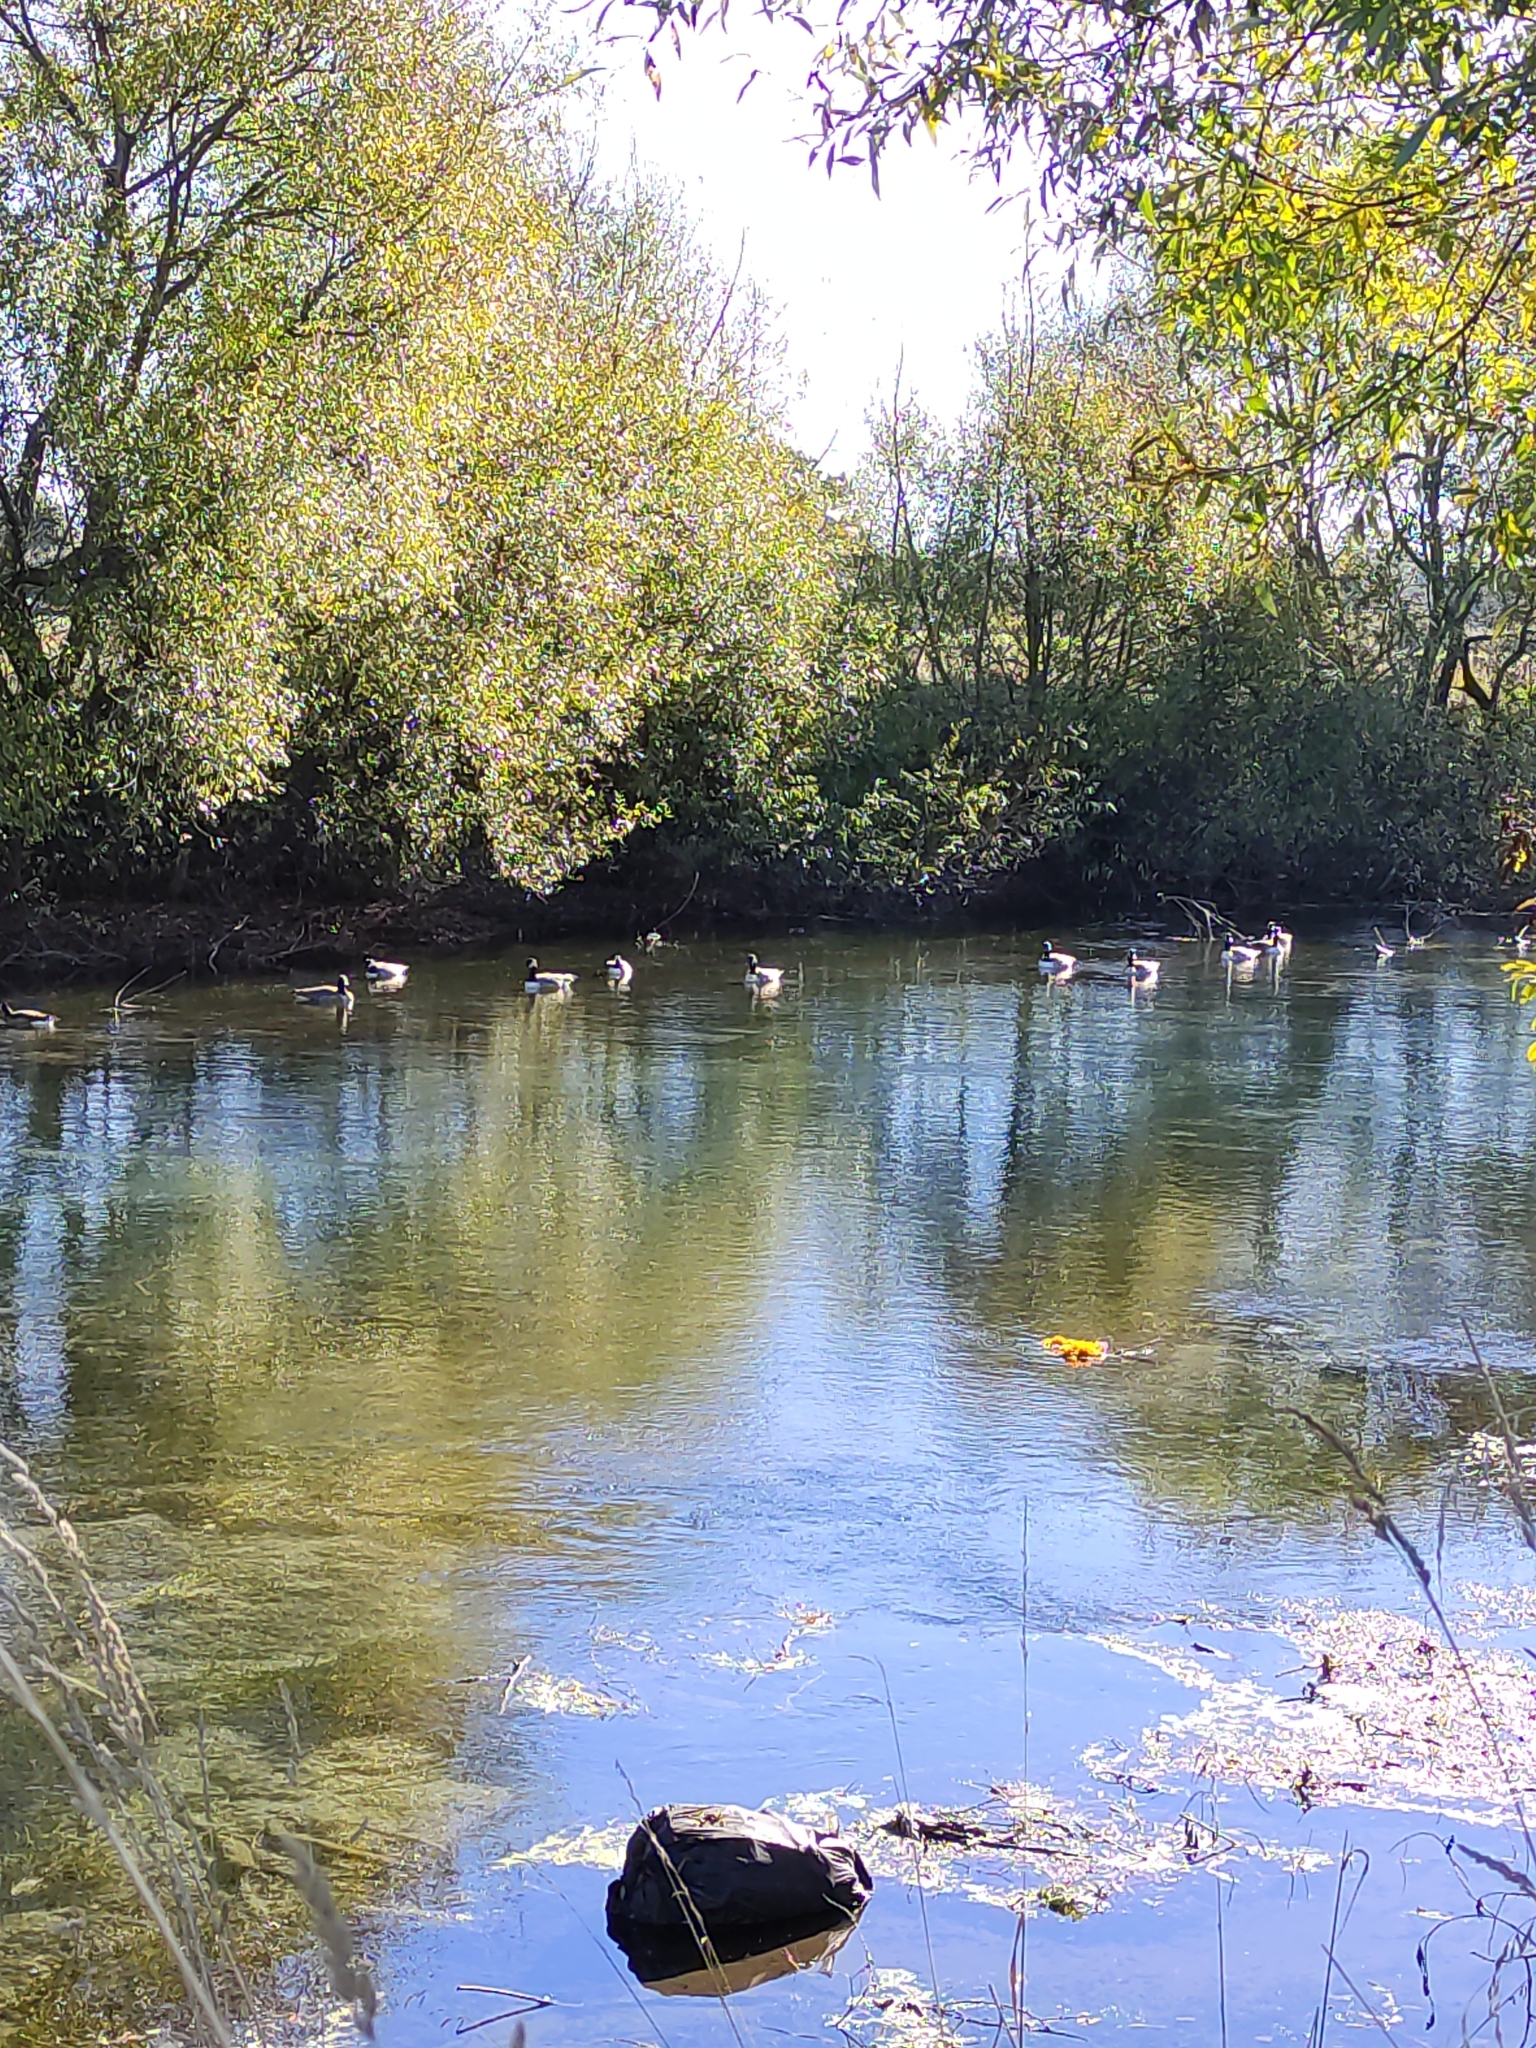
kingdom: Animalia
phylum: Chordata
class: Aves
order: Anseriformes
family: Anatidae
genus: Branta
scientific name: Branta canadensis
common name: Canada goose
